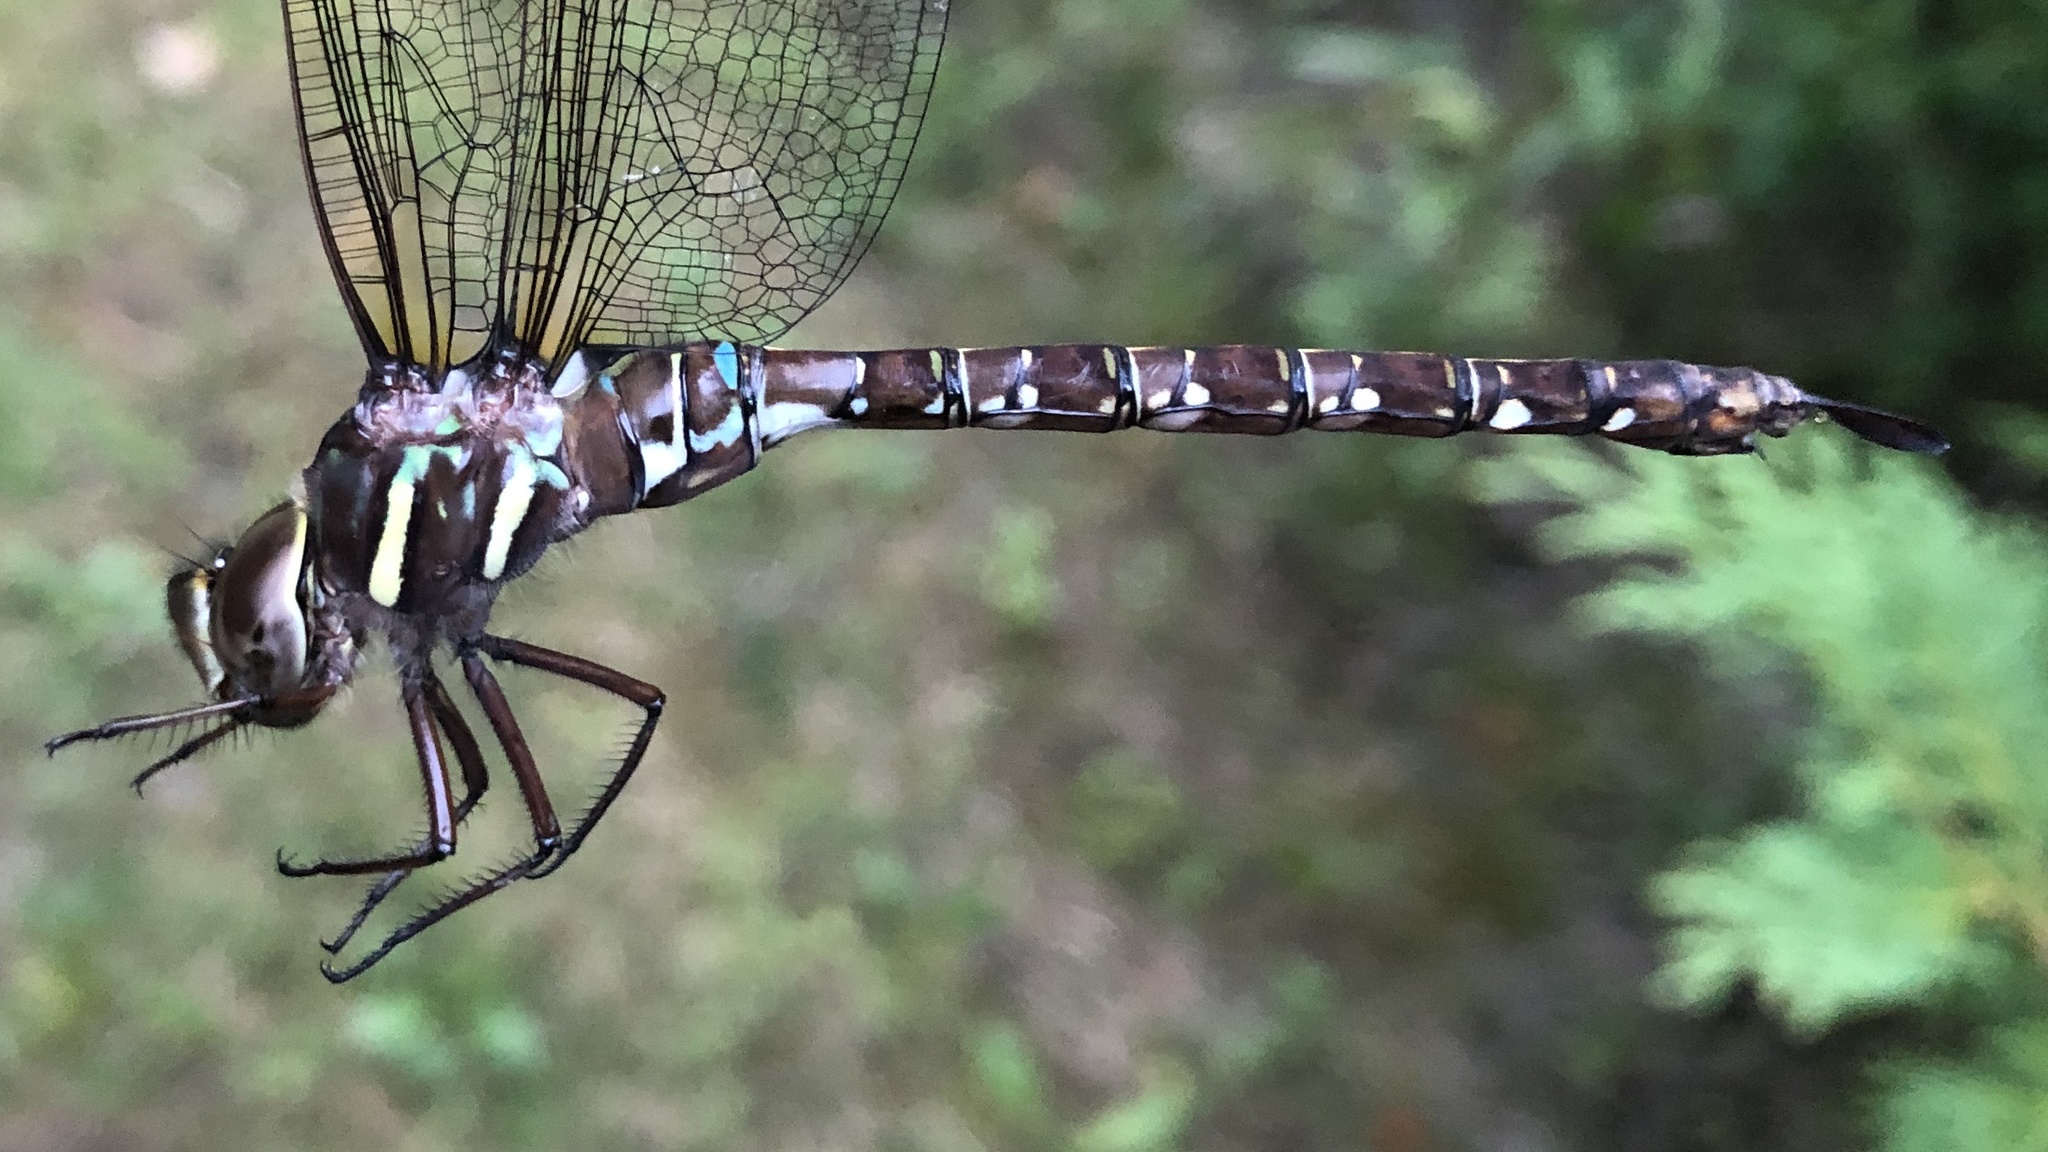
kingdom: Animalia
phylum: Arthropoda
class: Insecta
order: Odonata
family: Aeshnidae
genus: Aeshna
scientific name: Aeshna umbrosa
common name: Shadow darner
